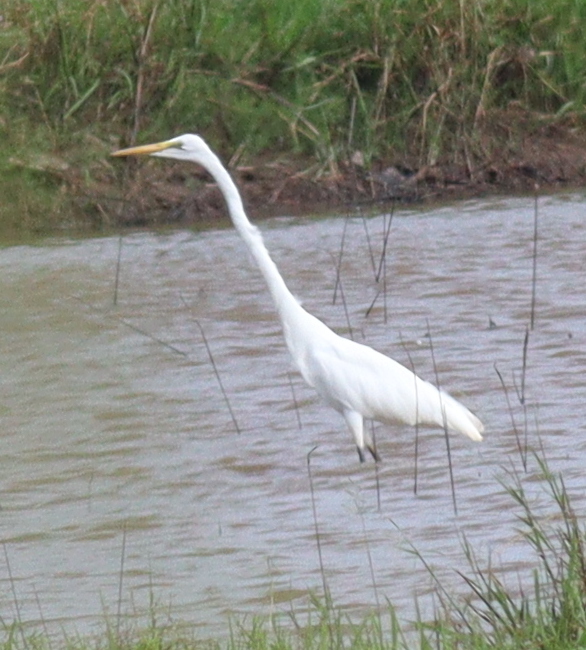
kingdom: Animalia
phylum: Chordata
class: Aves
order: Pelecaniformes
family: Ardeidae
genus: Ardea
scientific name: Ardea modesta
